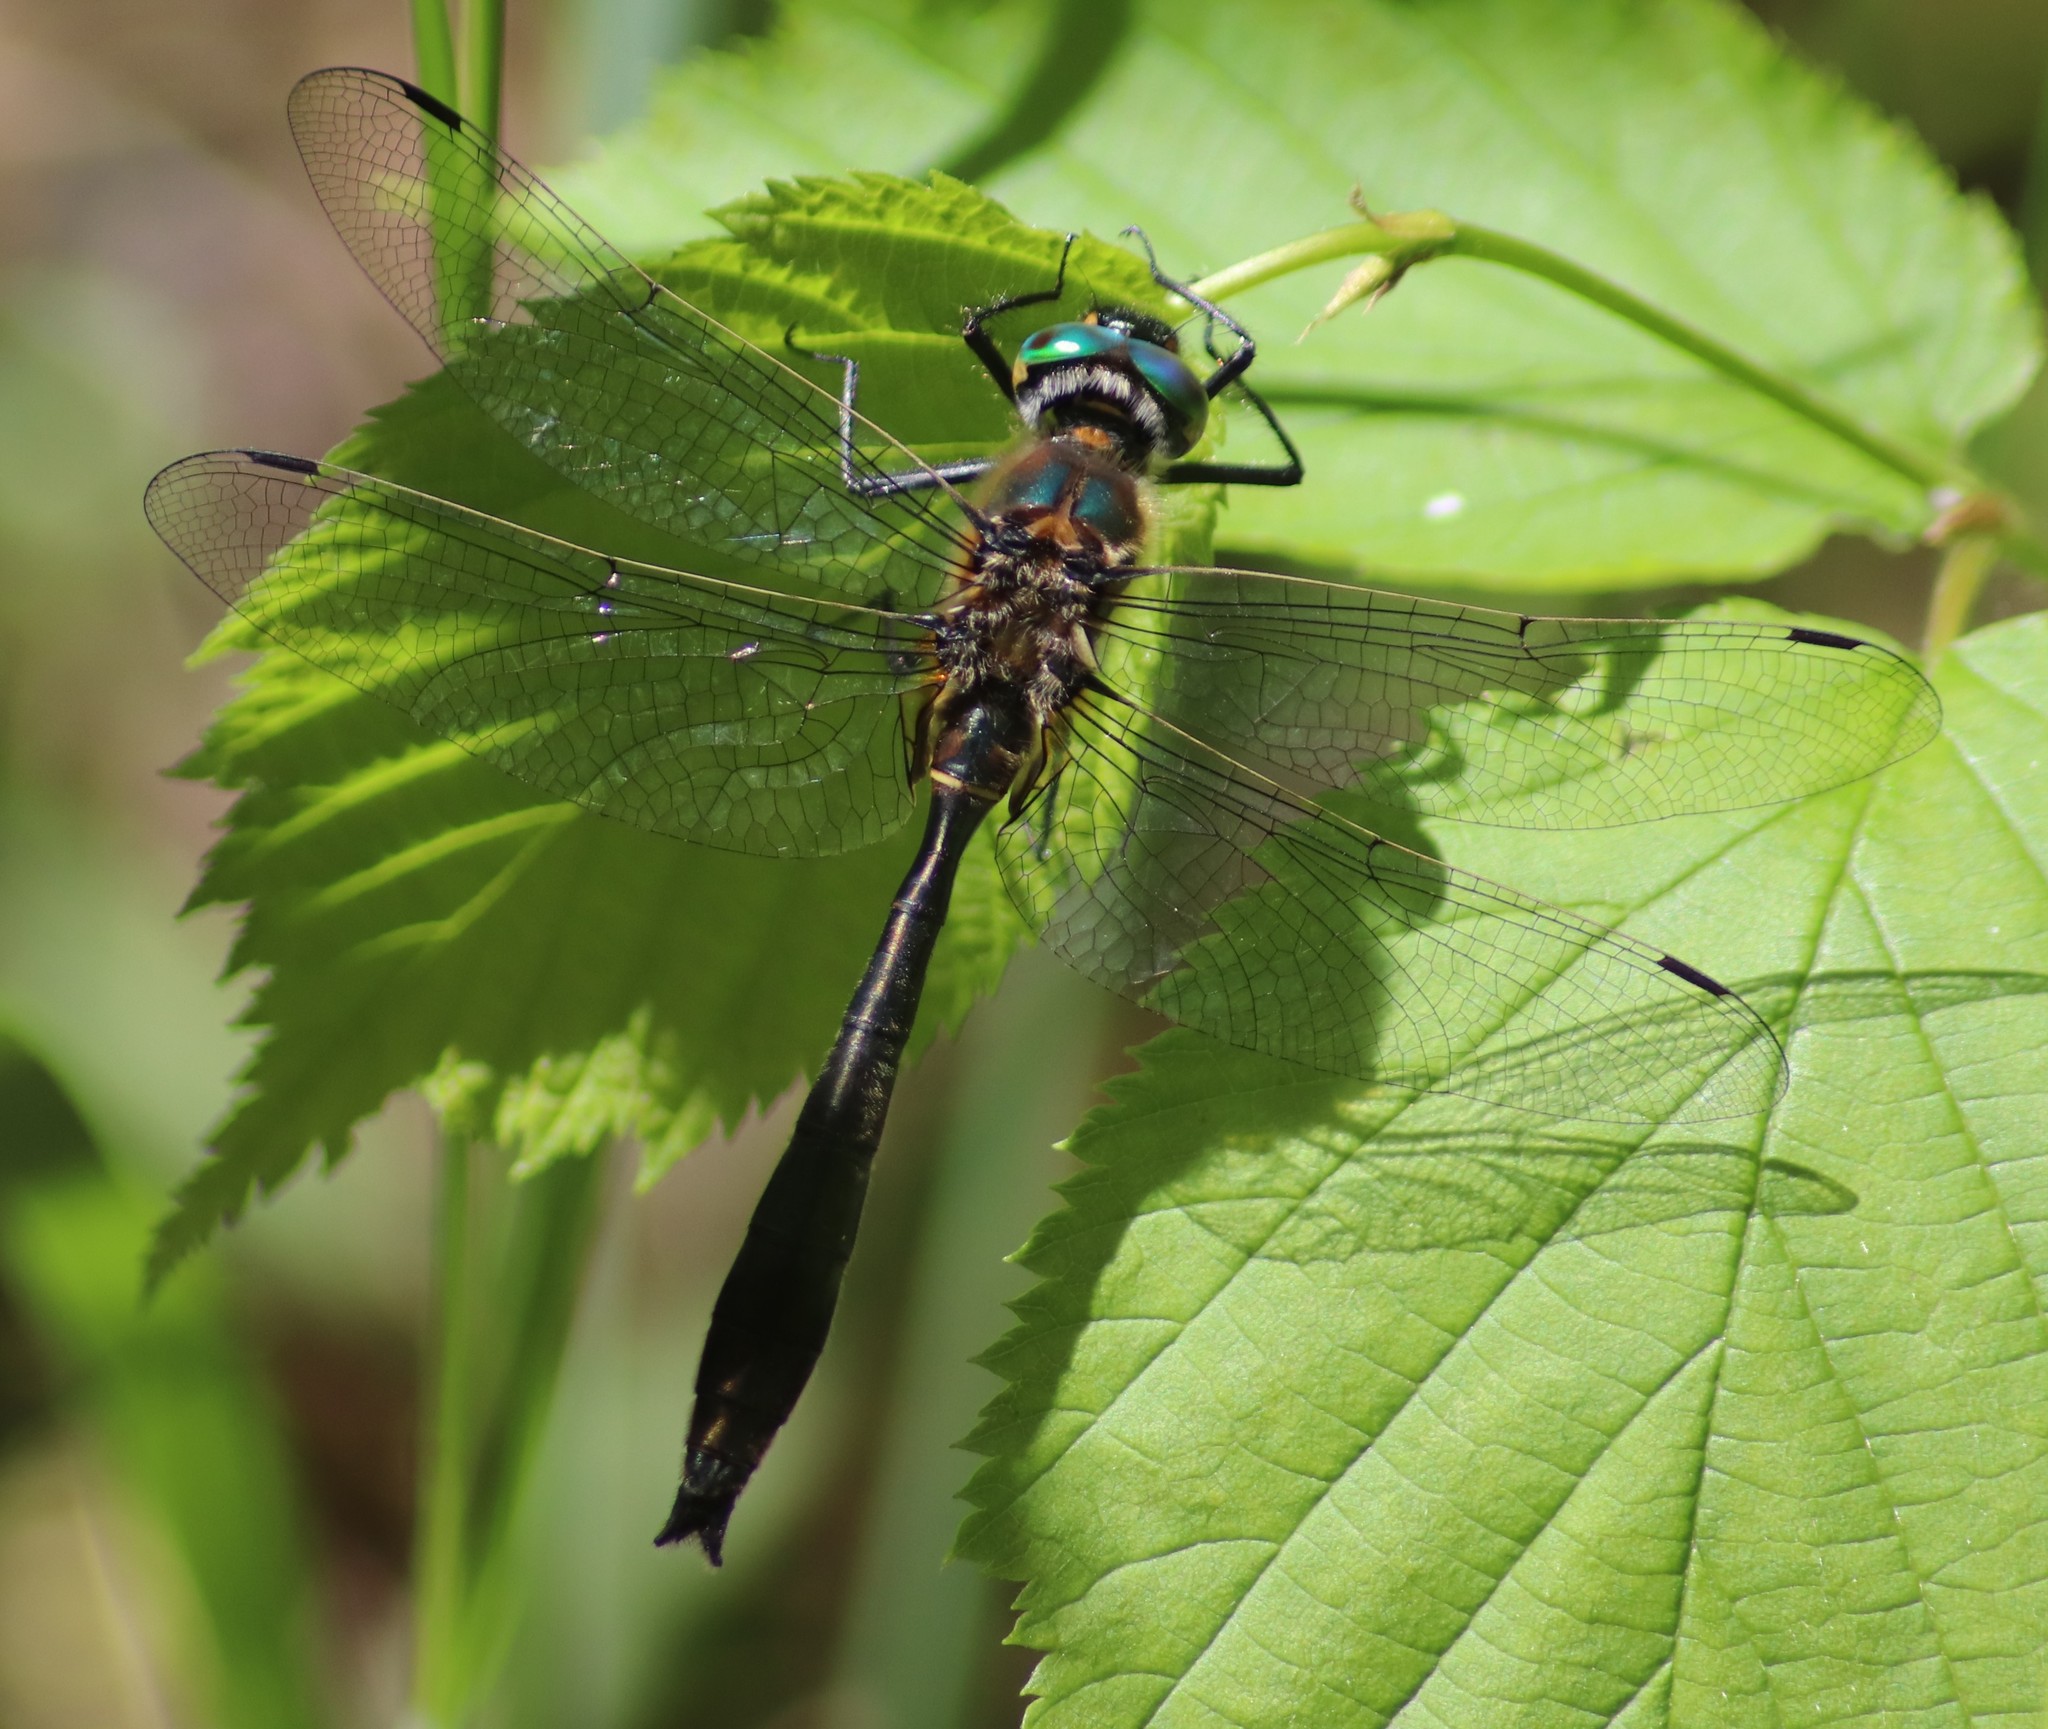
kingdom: Animalia
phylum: Arthropoda
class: Insecta
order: Odonata
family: Corduliidae
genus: Cordulia
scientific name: Cordulia shurtleffii
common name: American emerald
